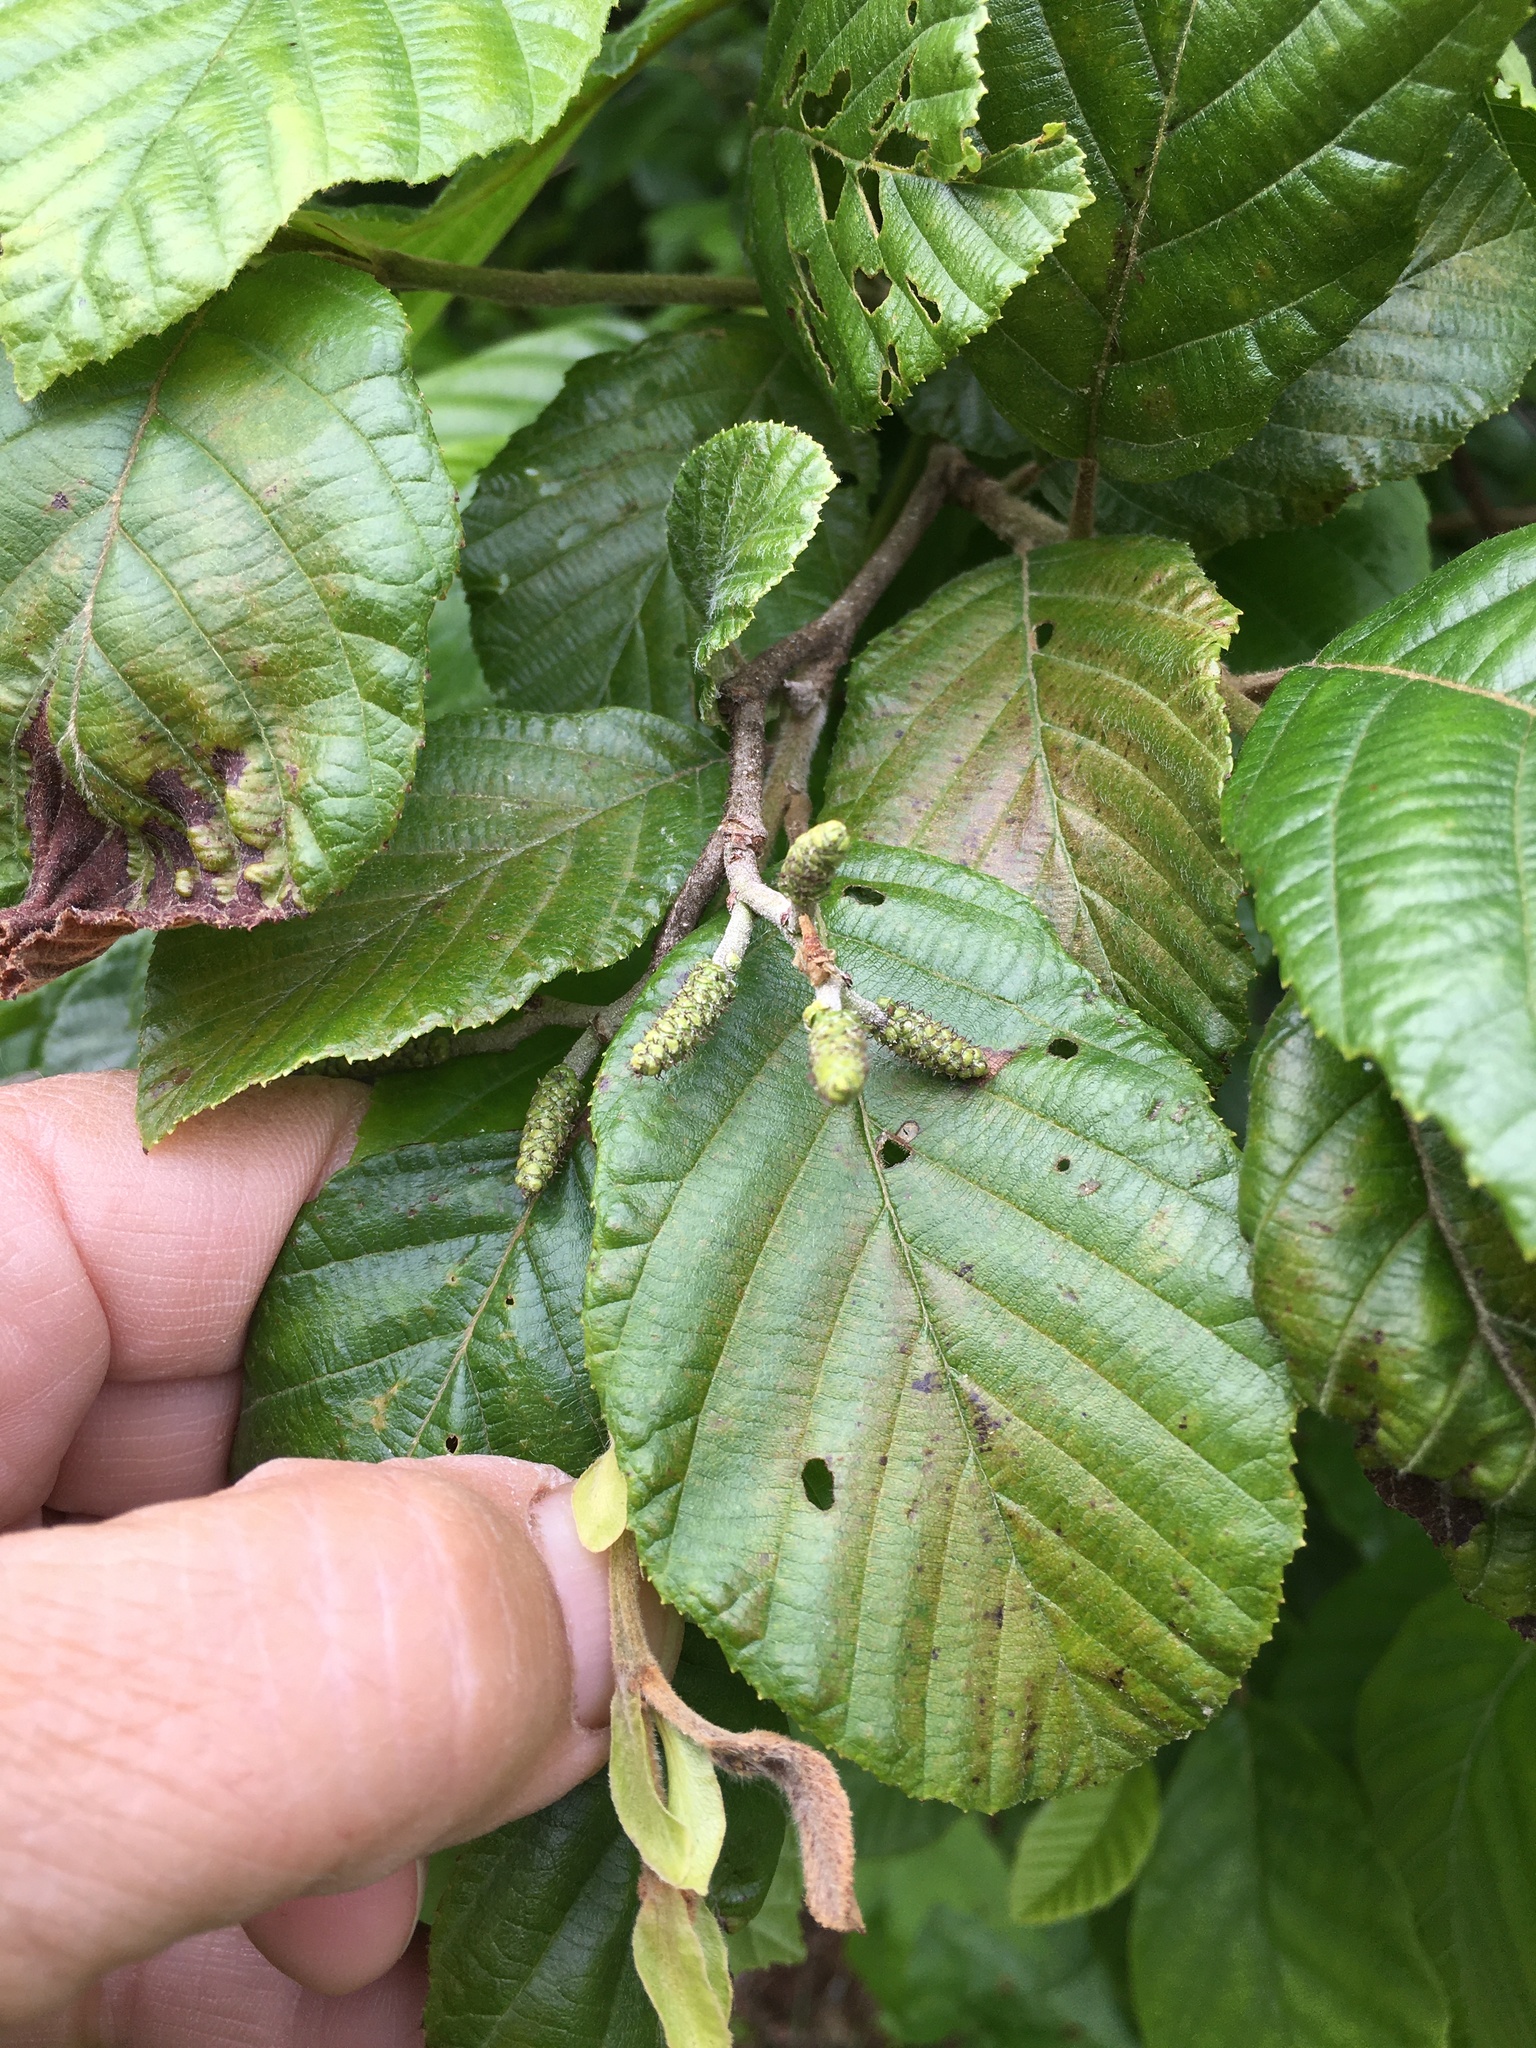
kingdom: Plantae
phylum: Tracheophyta
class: Magnoliopsida
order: Fagales
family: Betulaceae
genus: Alnus
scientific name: Alnus serrulata
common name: Hazel alder
